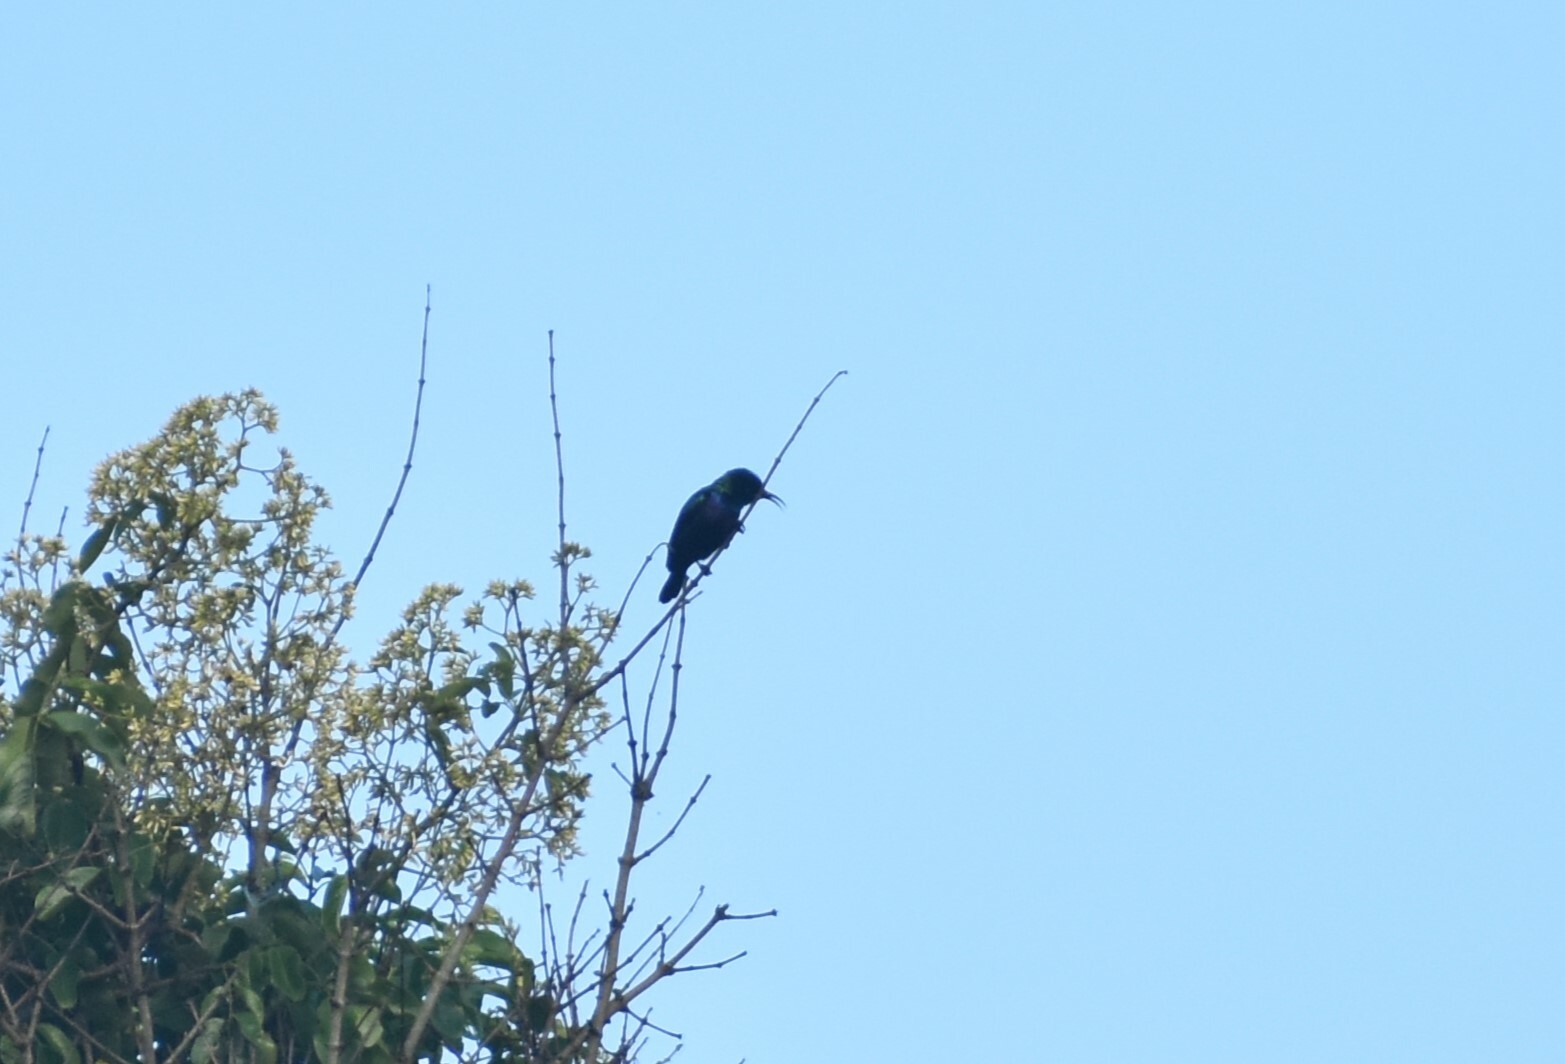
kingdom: Animalia
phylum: Chordata
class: Aves
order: Passeriformes
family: Nectariniidae
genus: Cinnyris
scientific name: Cinnyris bifasciatus
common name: Purple-banded sunbird
